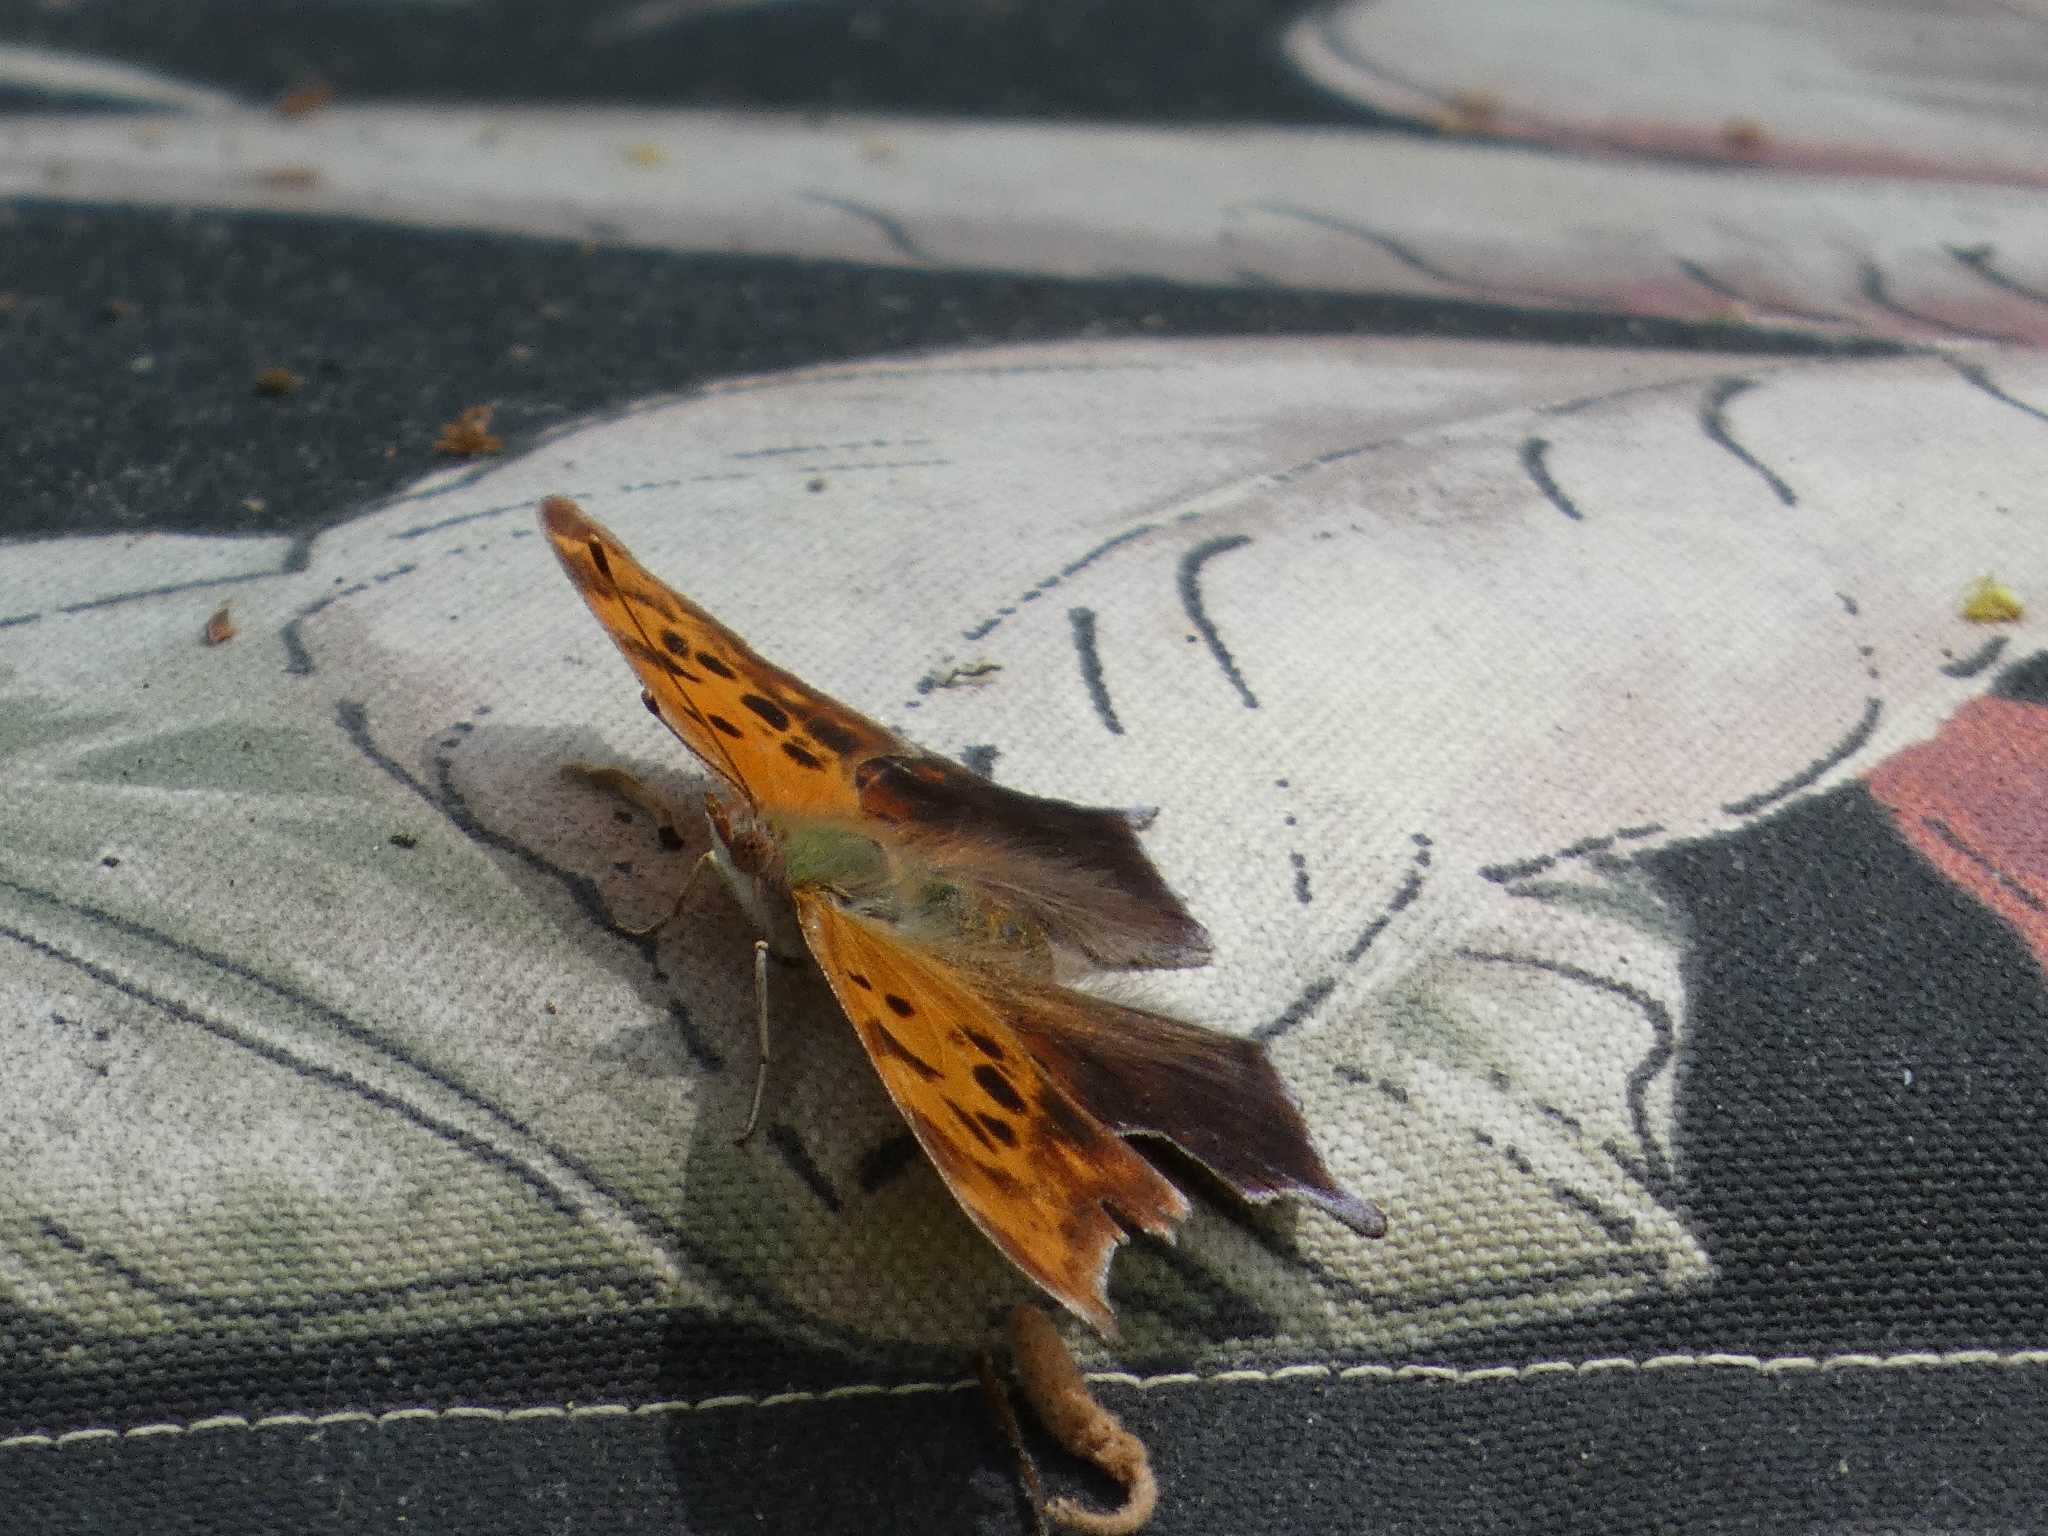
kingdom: Animalia
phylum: Arthropoda
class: Insecta
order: Lepidoptera
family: Nymphalidae
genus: Polygonia
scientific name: Polygonia interrogationis
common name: Question mark
